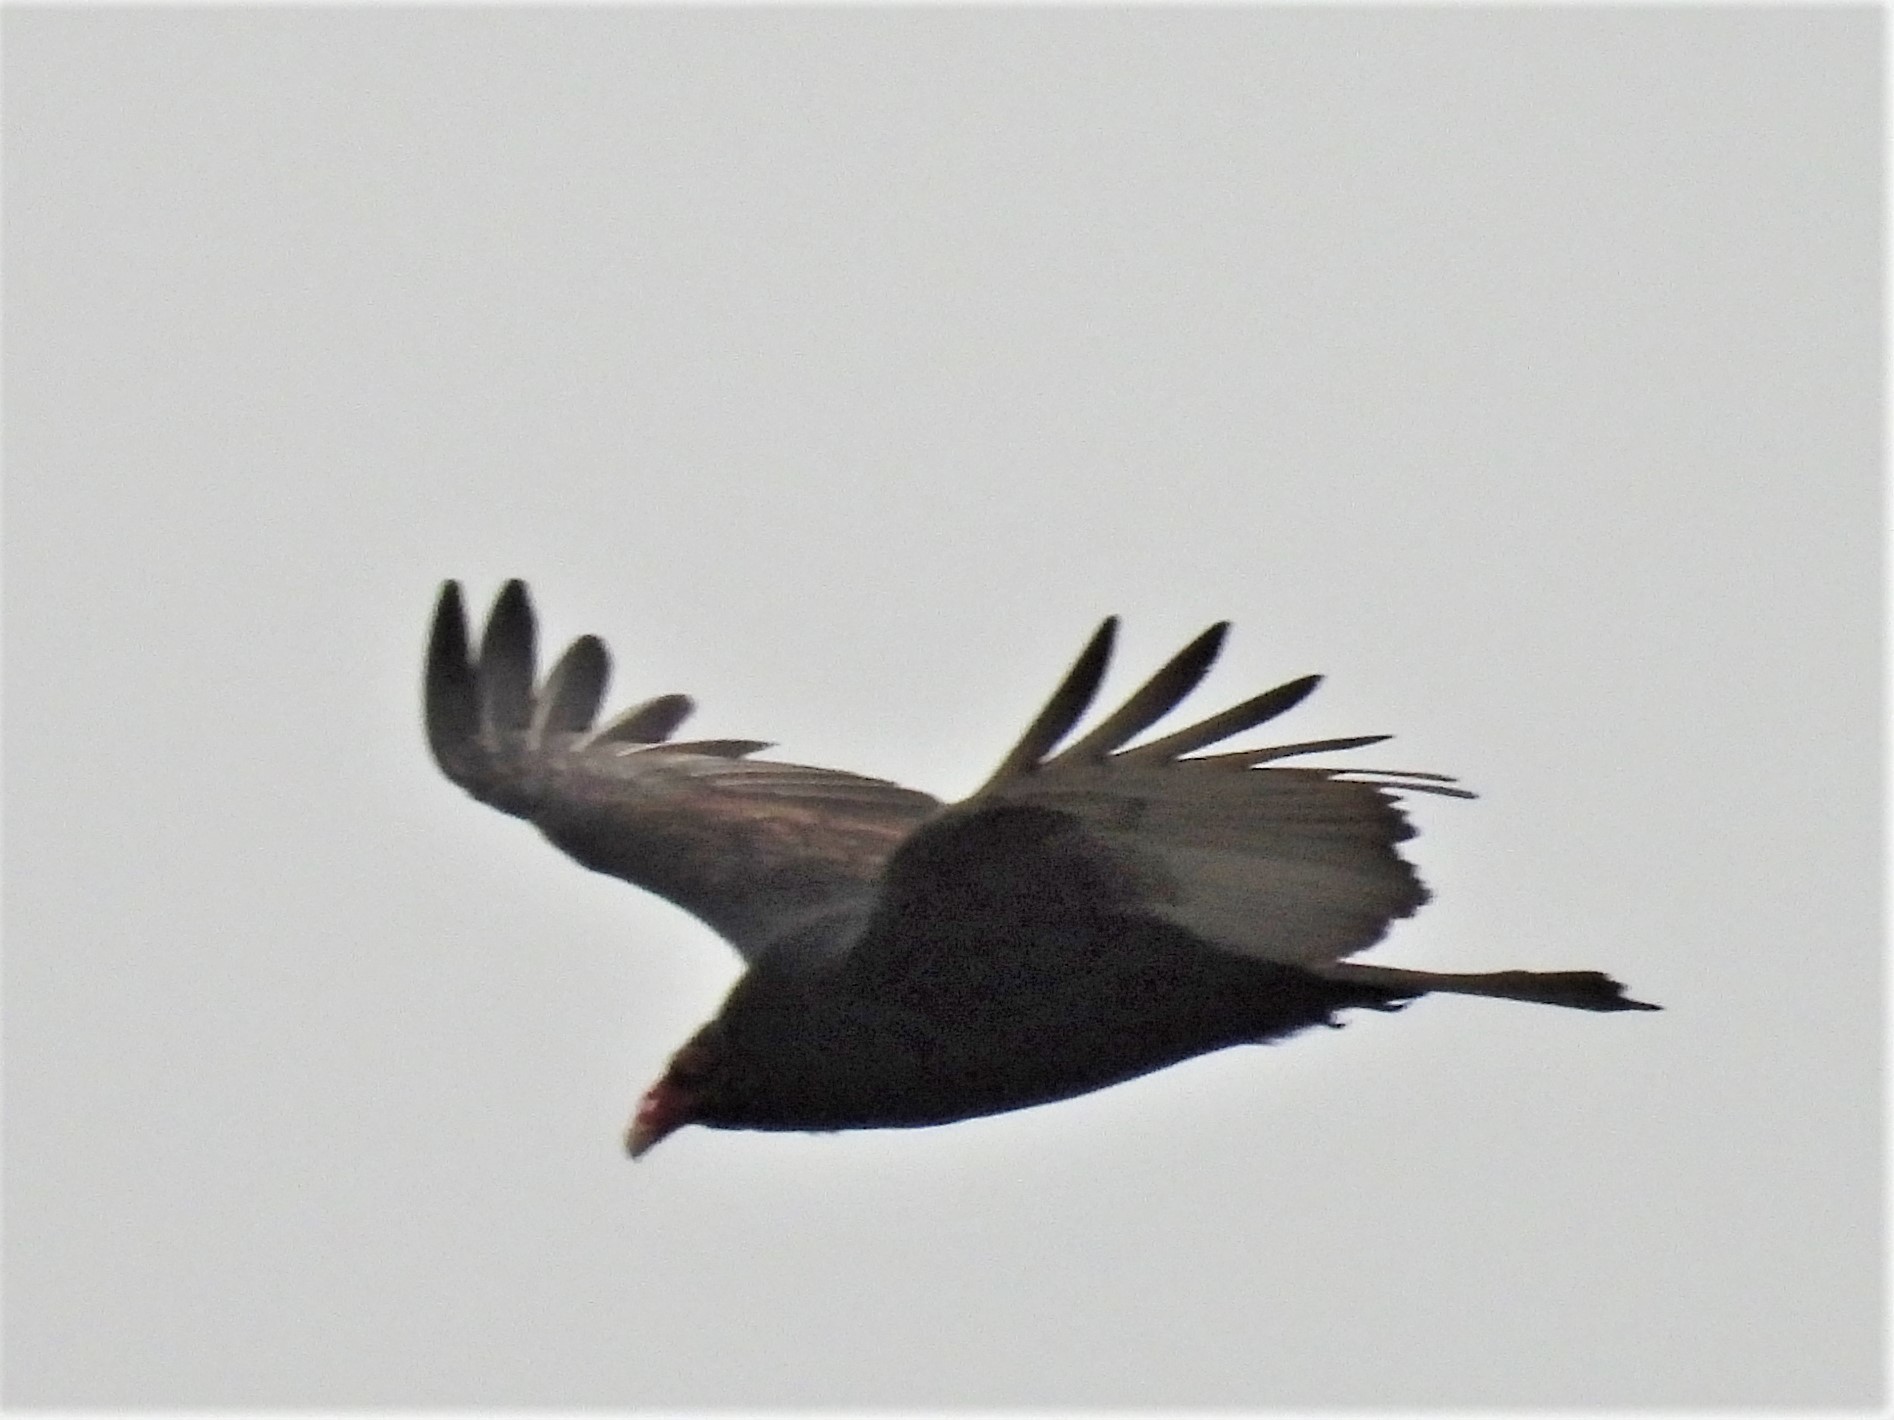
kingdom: Animalia
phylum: Chordata
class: Aves
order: Accipitriformes
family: Cathartidae
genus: Cathartes
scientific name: Cathartes aura
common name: Turkey vulture
